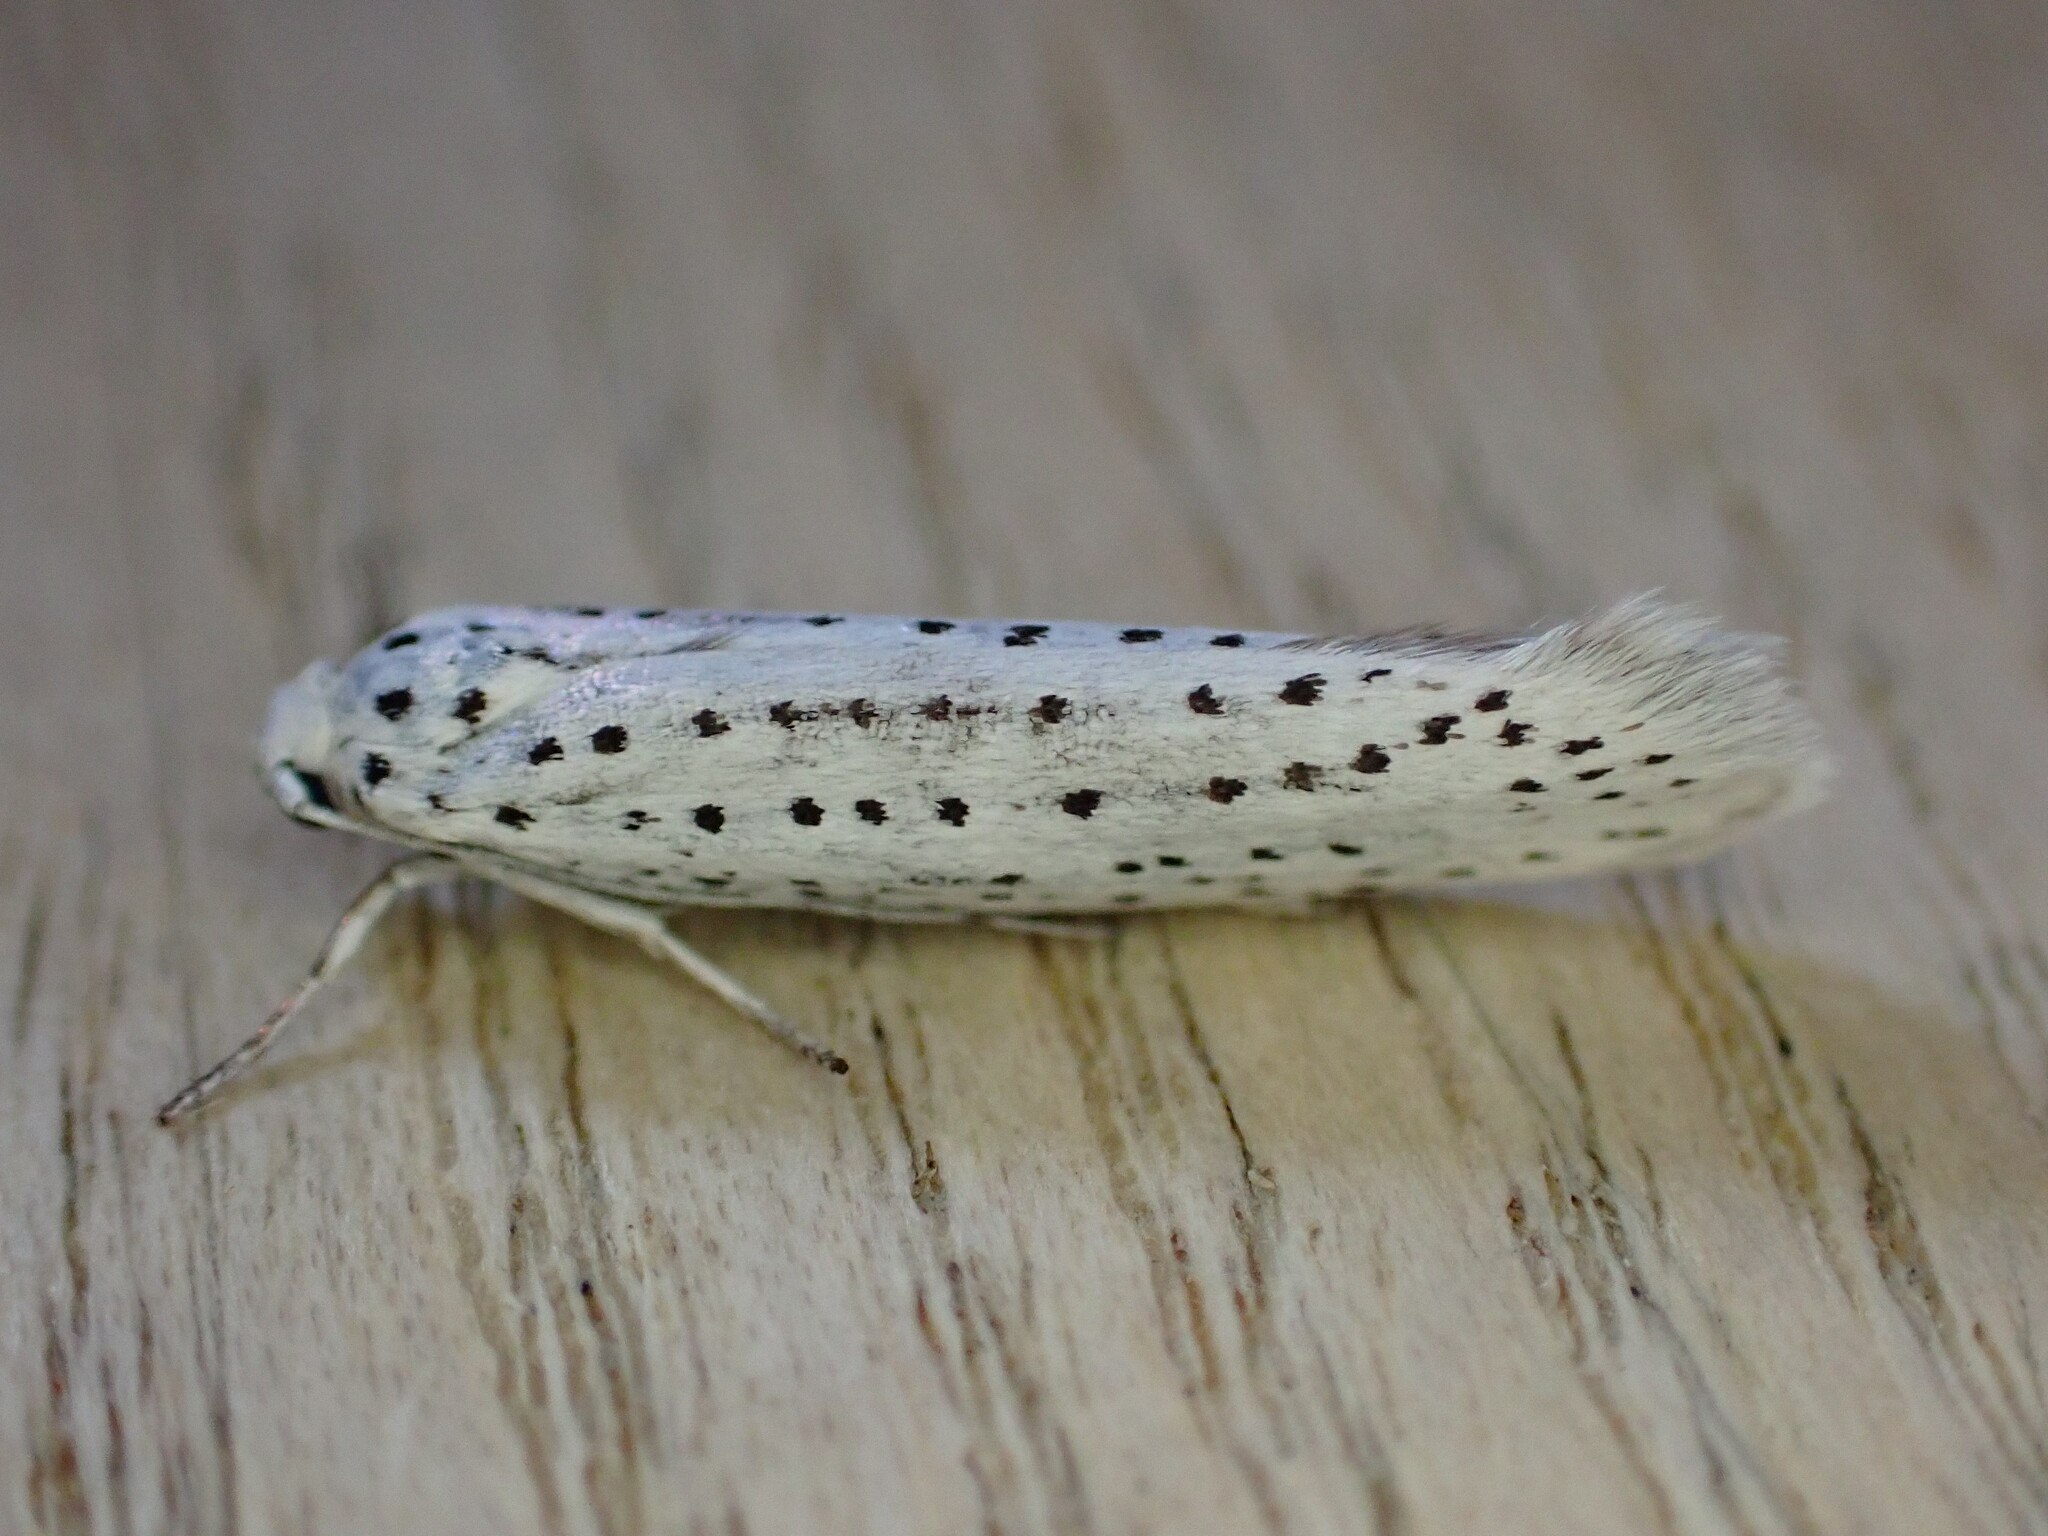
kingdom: Animalia
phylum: Arthropoda
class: Insecta
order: Lepidoptera
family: Yponomeutidae
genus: Yponomeuta
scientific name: Yponomeuta evonymella
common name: Bird-cherry ermine
